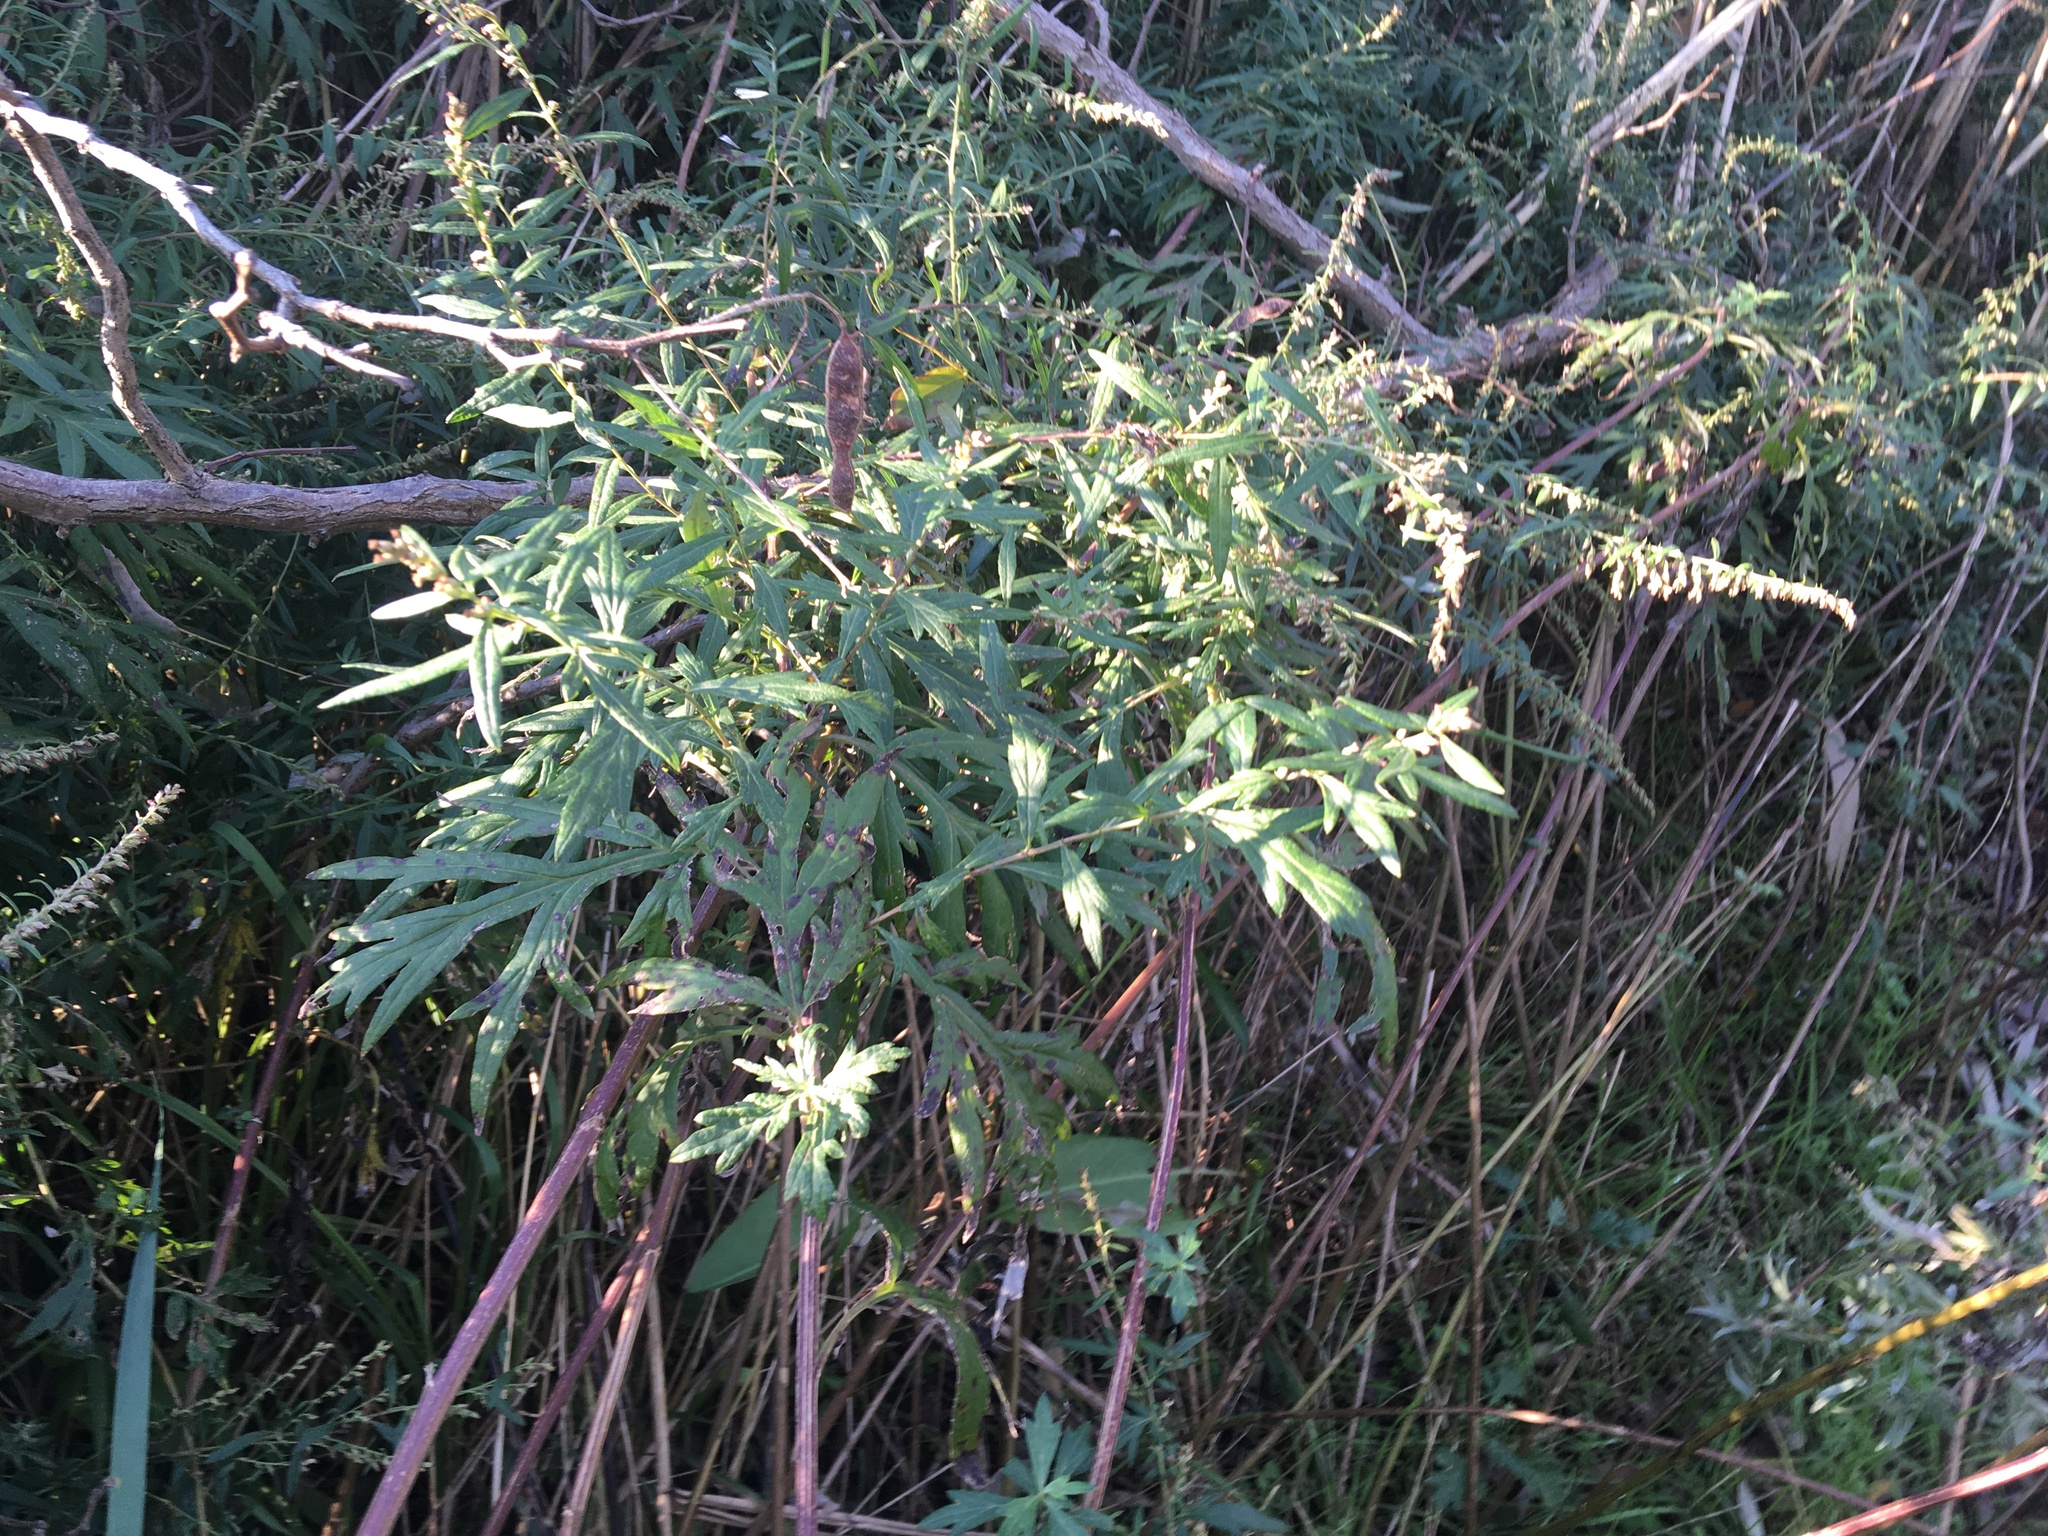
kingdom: Plantae
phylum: Tracheophyta
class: Magnoliopsida
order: Asterales
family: Asteraceae
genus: Artemisia
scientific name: Artemisia vulgaris
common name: Mugwort
